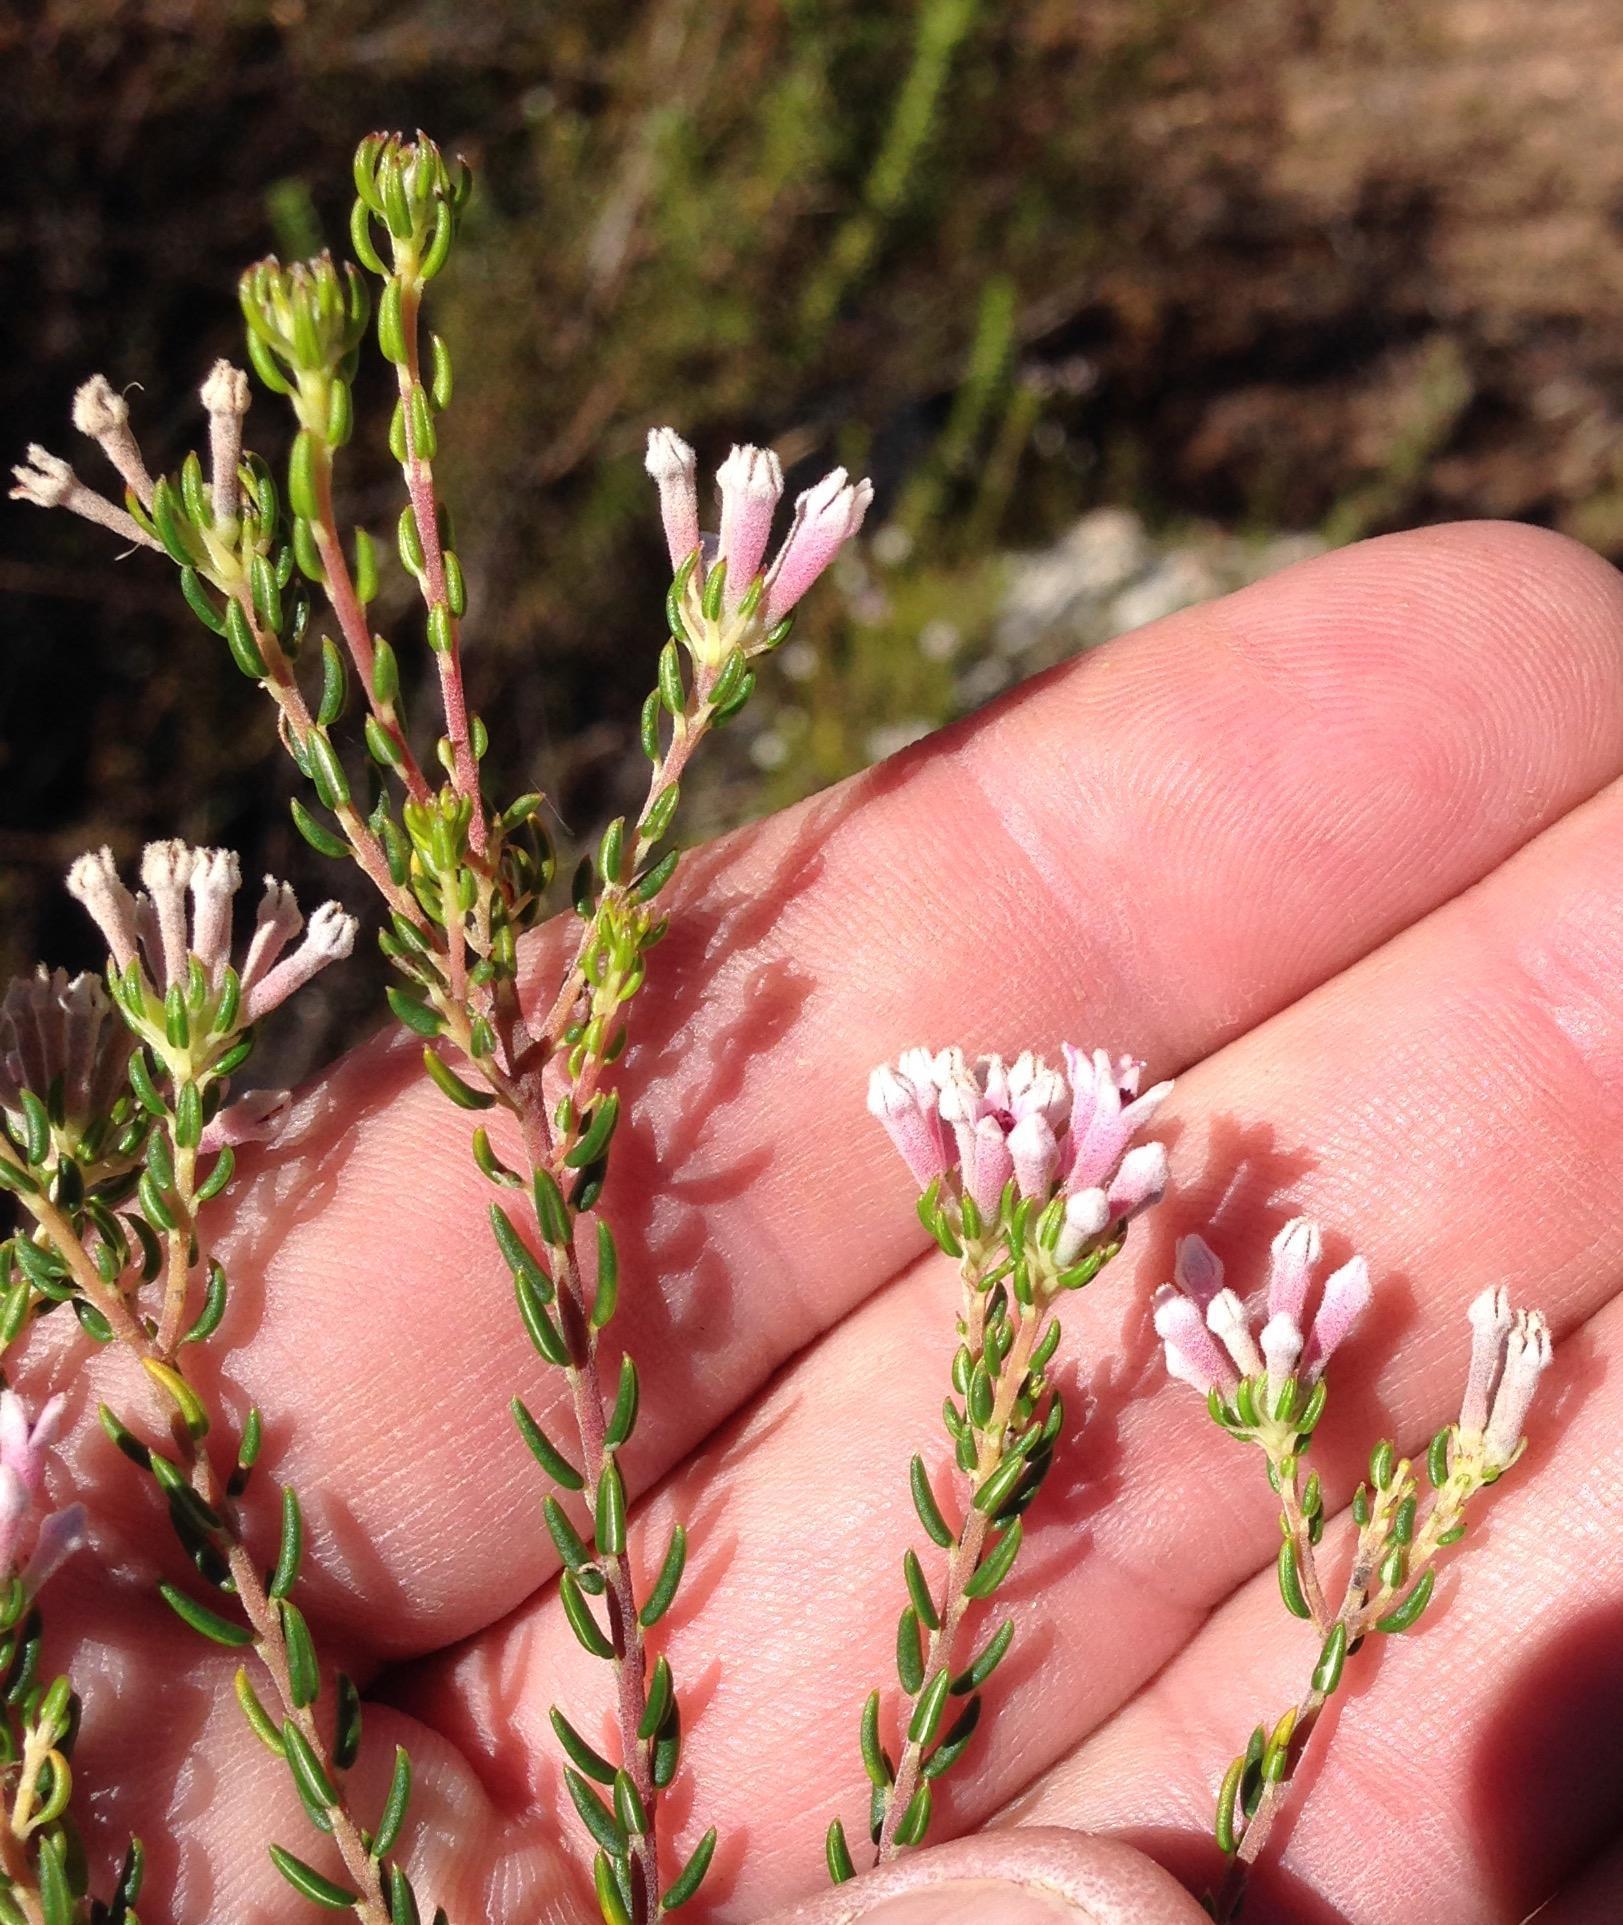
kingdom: Plantae
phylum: Tracheophyta
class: Magnoliopsida
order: Rosales
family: Rhamnaceae
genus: Phylica
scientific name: Phylica lachneaeoides
